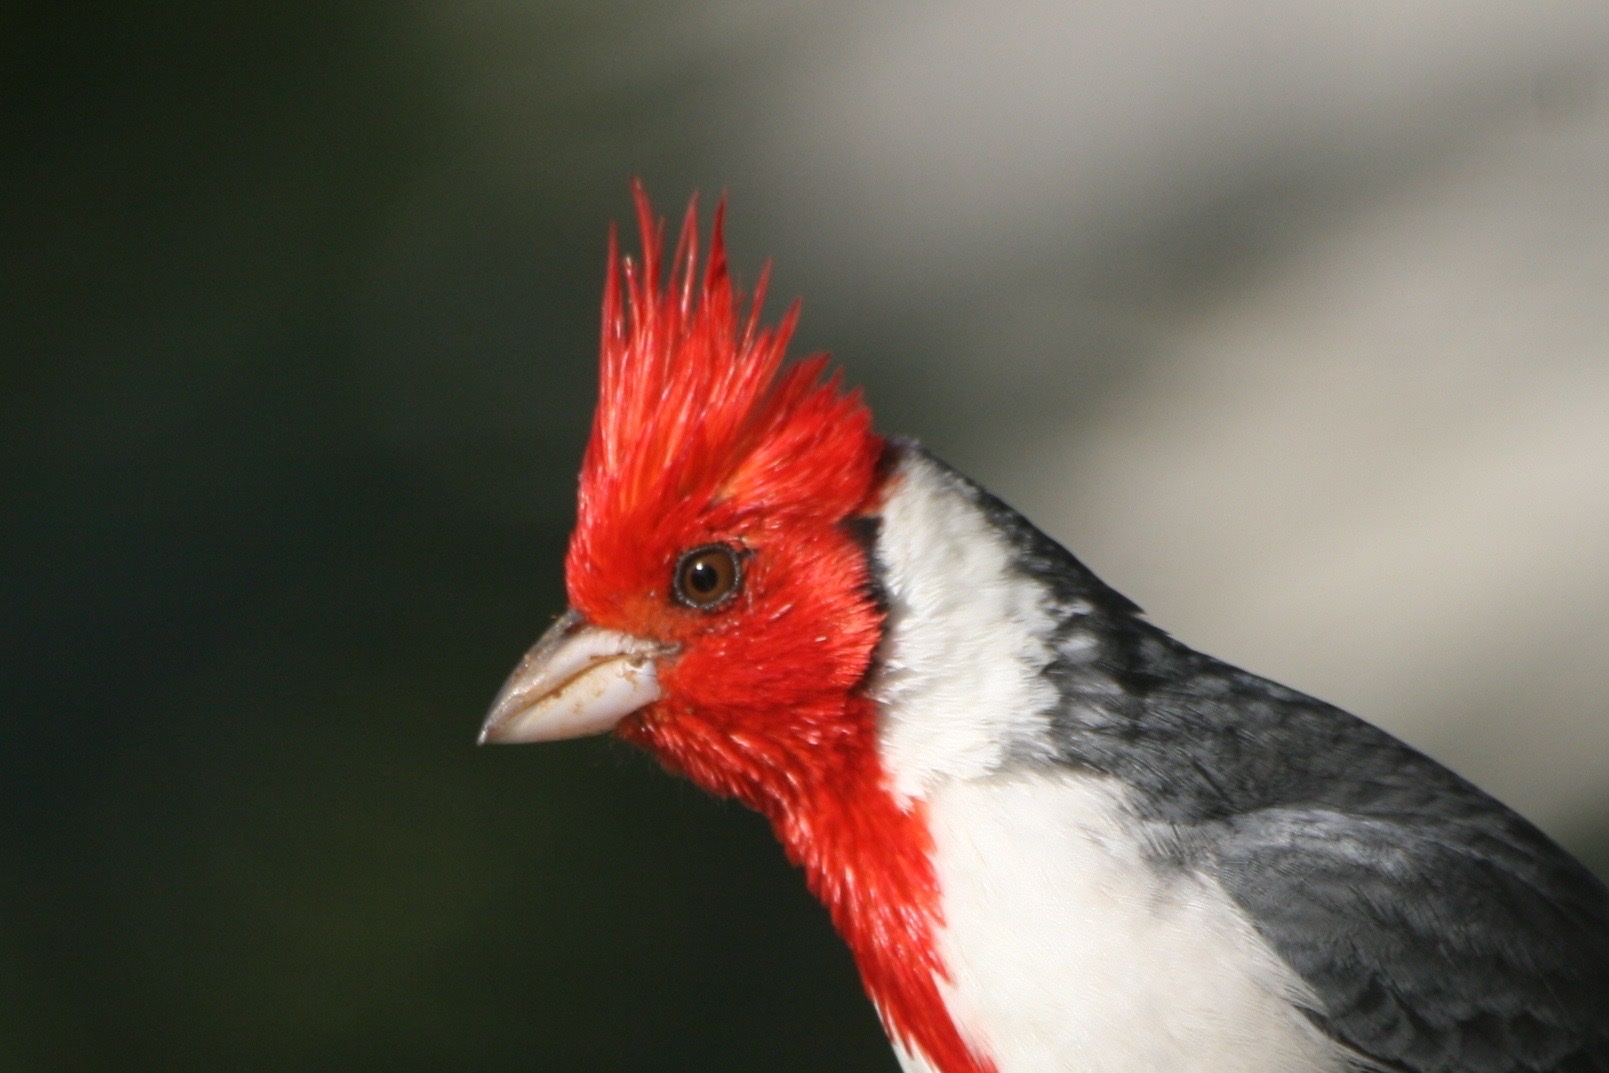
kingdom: Animalia
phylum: Chordata
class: Aves
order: Passeriformes
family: Thraupidae
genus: Paroaria
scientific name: Paroaria coronata
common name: Red-crested cardinal
